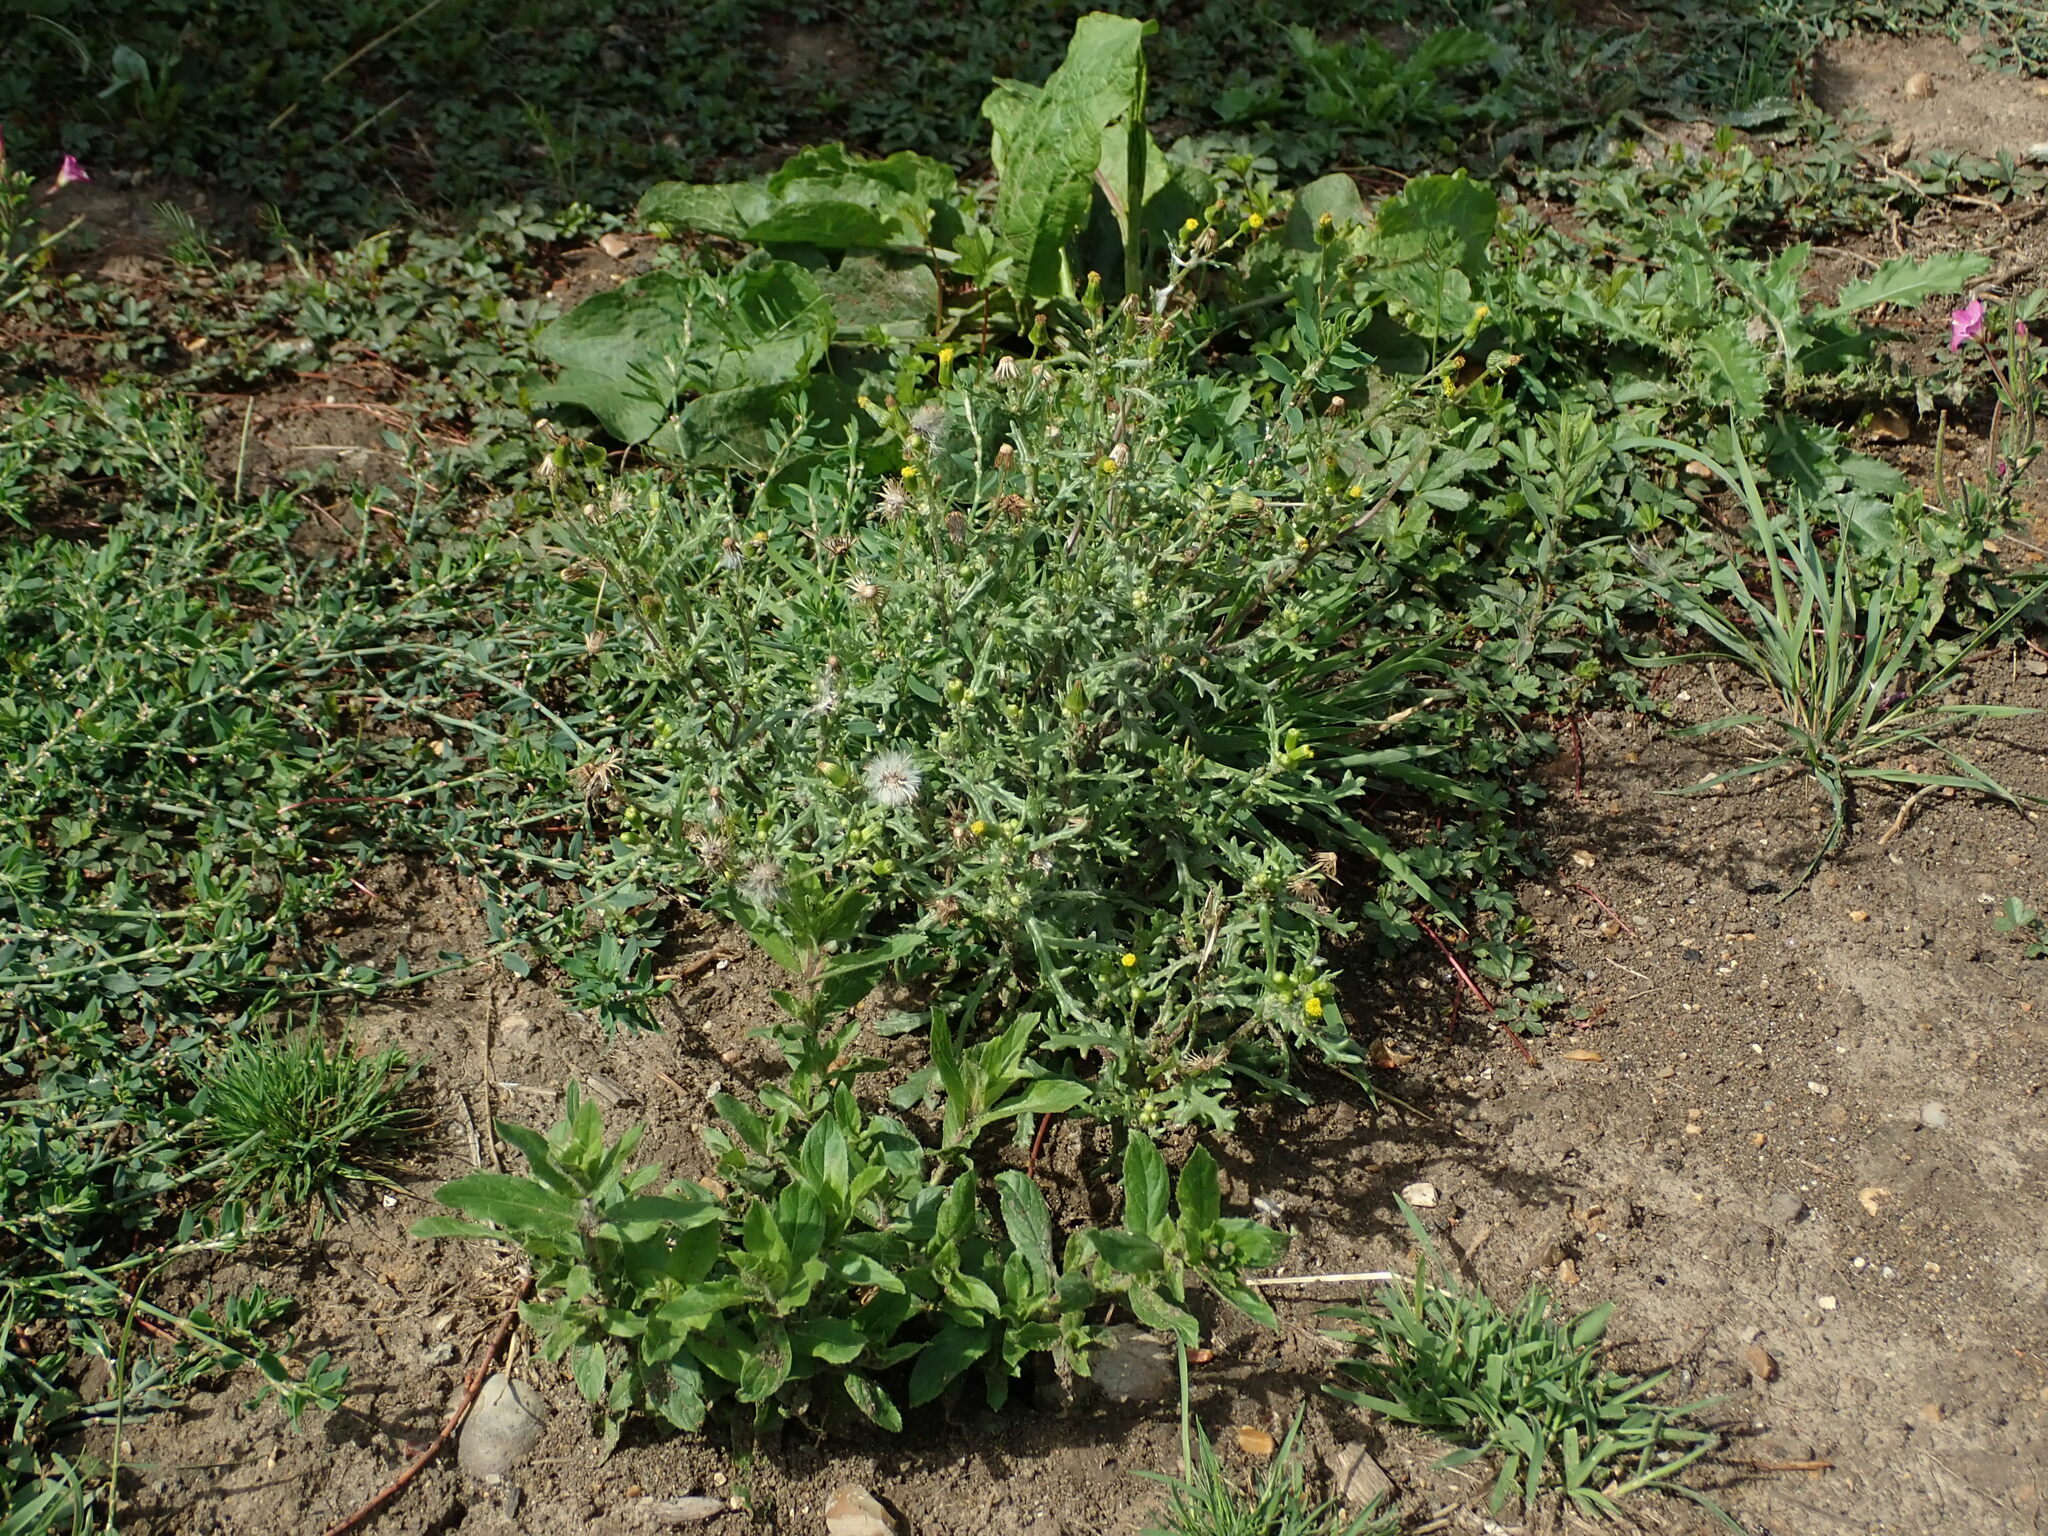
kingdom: Plantae
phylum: Tracheophyta
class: Magnoliopsida
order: Asterales
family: Asteraceae
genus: Senecio
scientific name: Senecio vulgaris
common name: Old-man-in-the-spring
